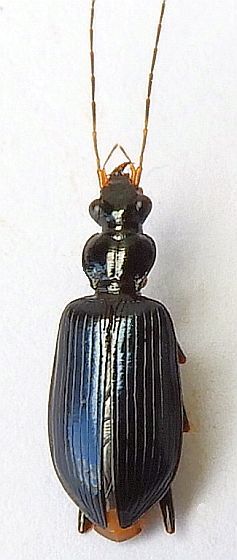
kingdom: Animalia
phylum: Arthropoda
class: Insecta
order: Coleoptera
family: Carabidae
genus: Dyscolus
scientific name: Dyscolus megalops
